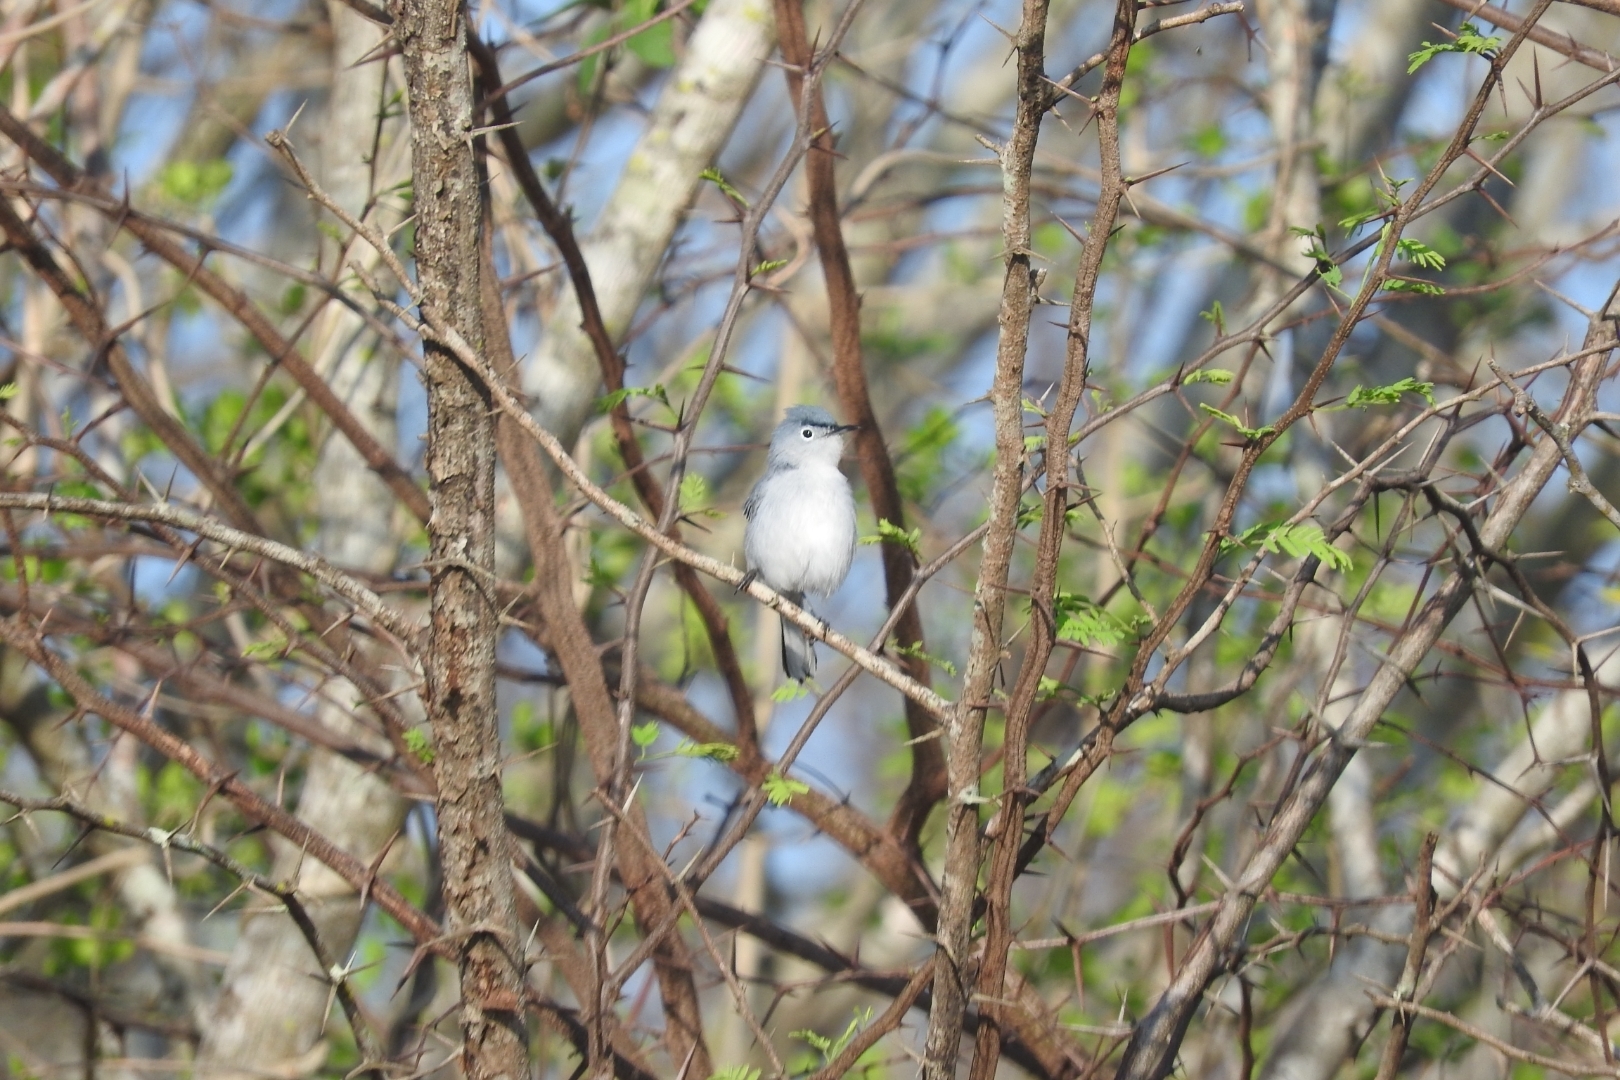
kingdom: Animalia
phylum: Chordata
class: Aves
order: Passeriformes
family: Polioptilidae
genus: Polioptila
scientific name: Polioptila caerulea
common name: Blue-gray gnatcatcher
